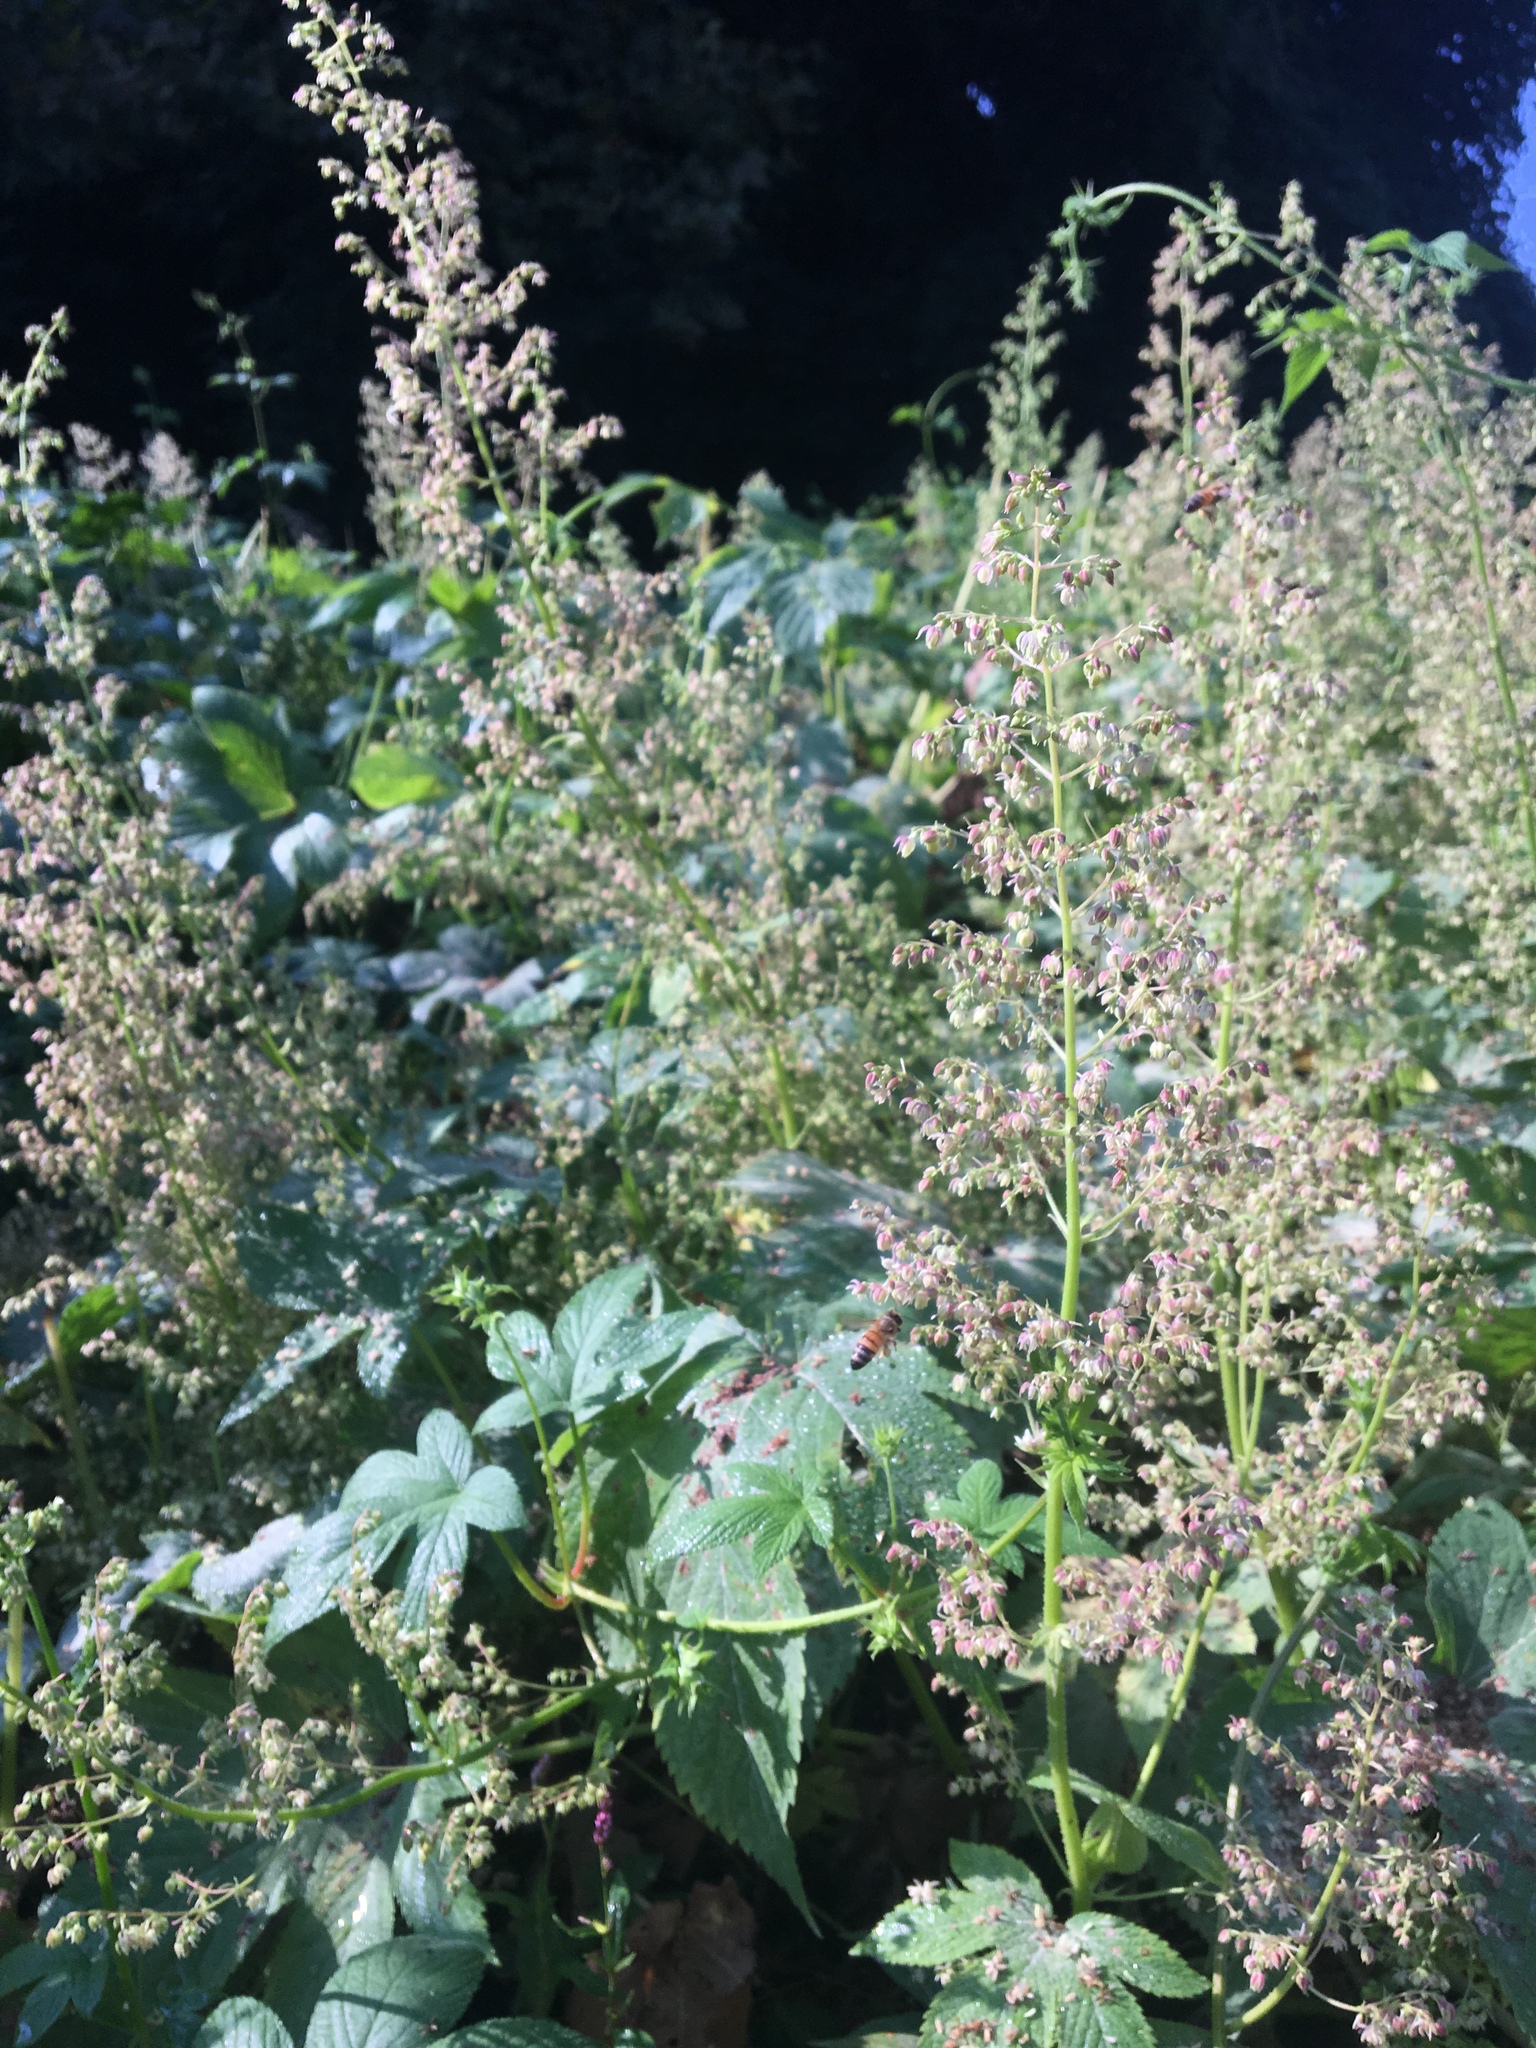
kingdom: Animalia
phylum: Arthropoda
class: Insecta
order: Hymenoptera
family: Apidae
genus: Apis
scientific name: Apis mellifera
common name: Honey bee
